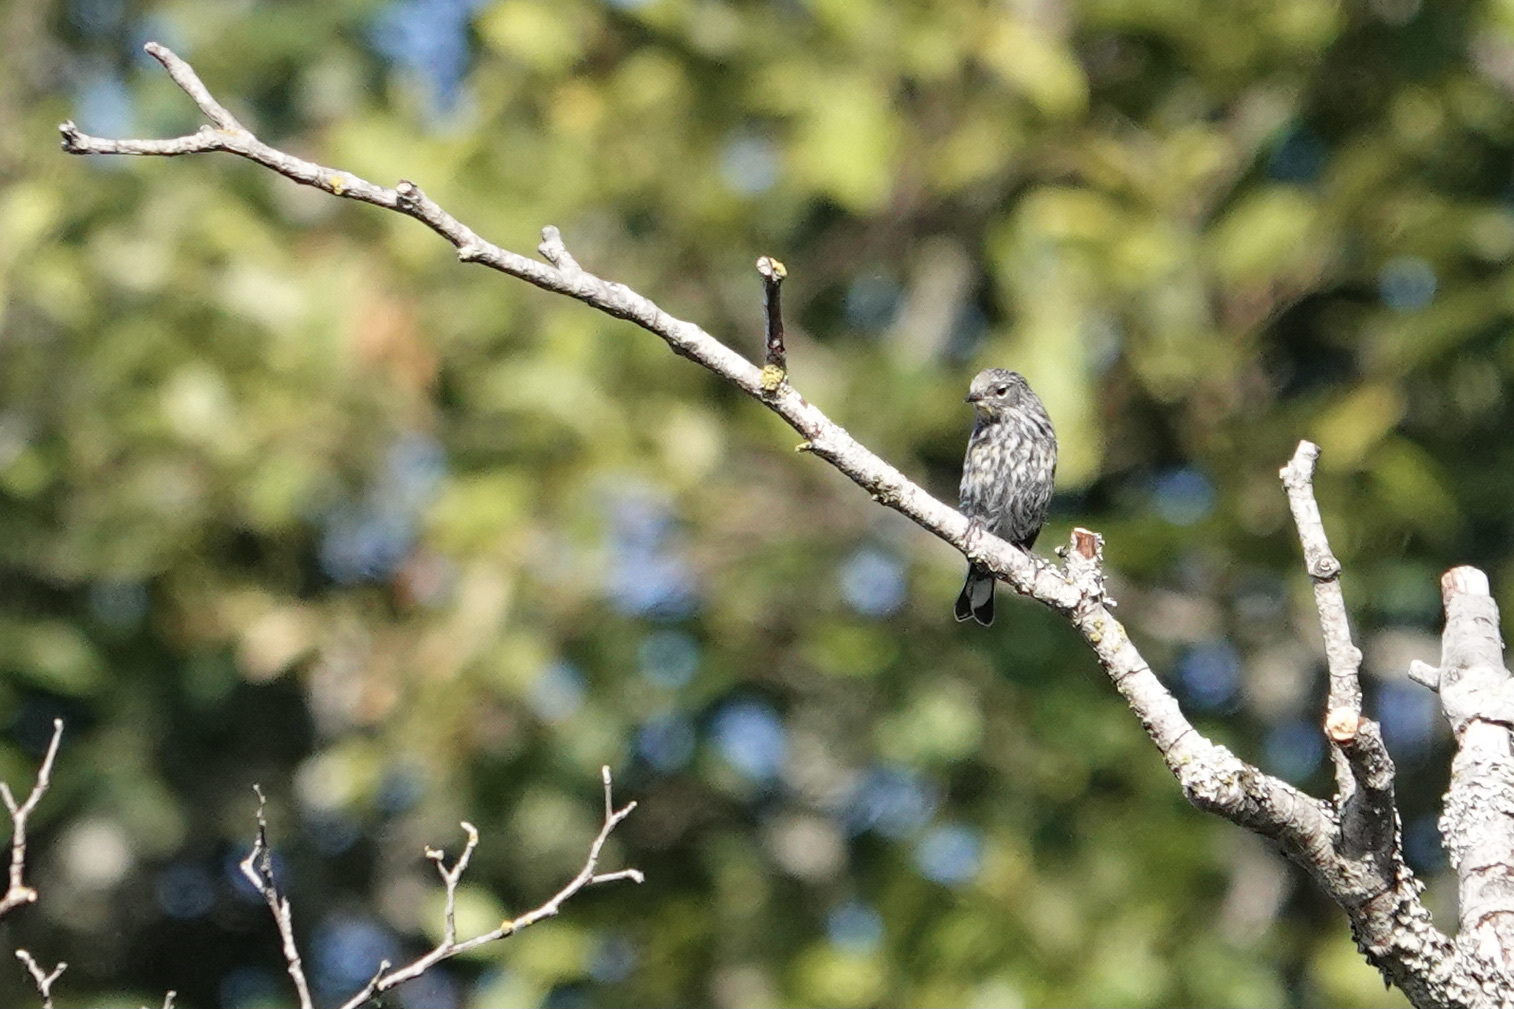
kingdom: Animalia
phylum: Chordata
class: Aves
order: Passeriformes
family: Parulidae
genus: Setophaga
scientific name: Setophaga coronata
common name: Myrtle warbler
